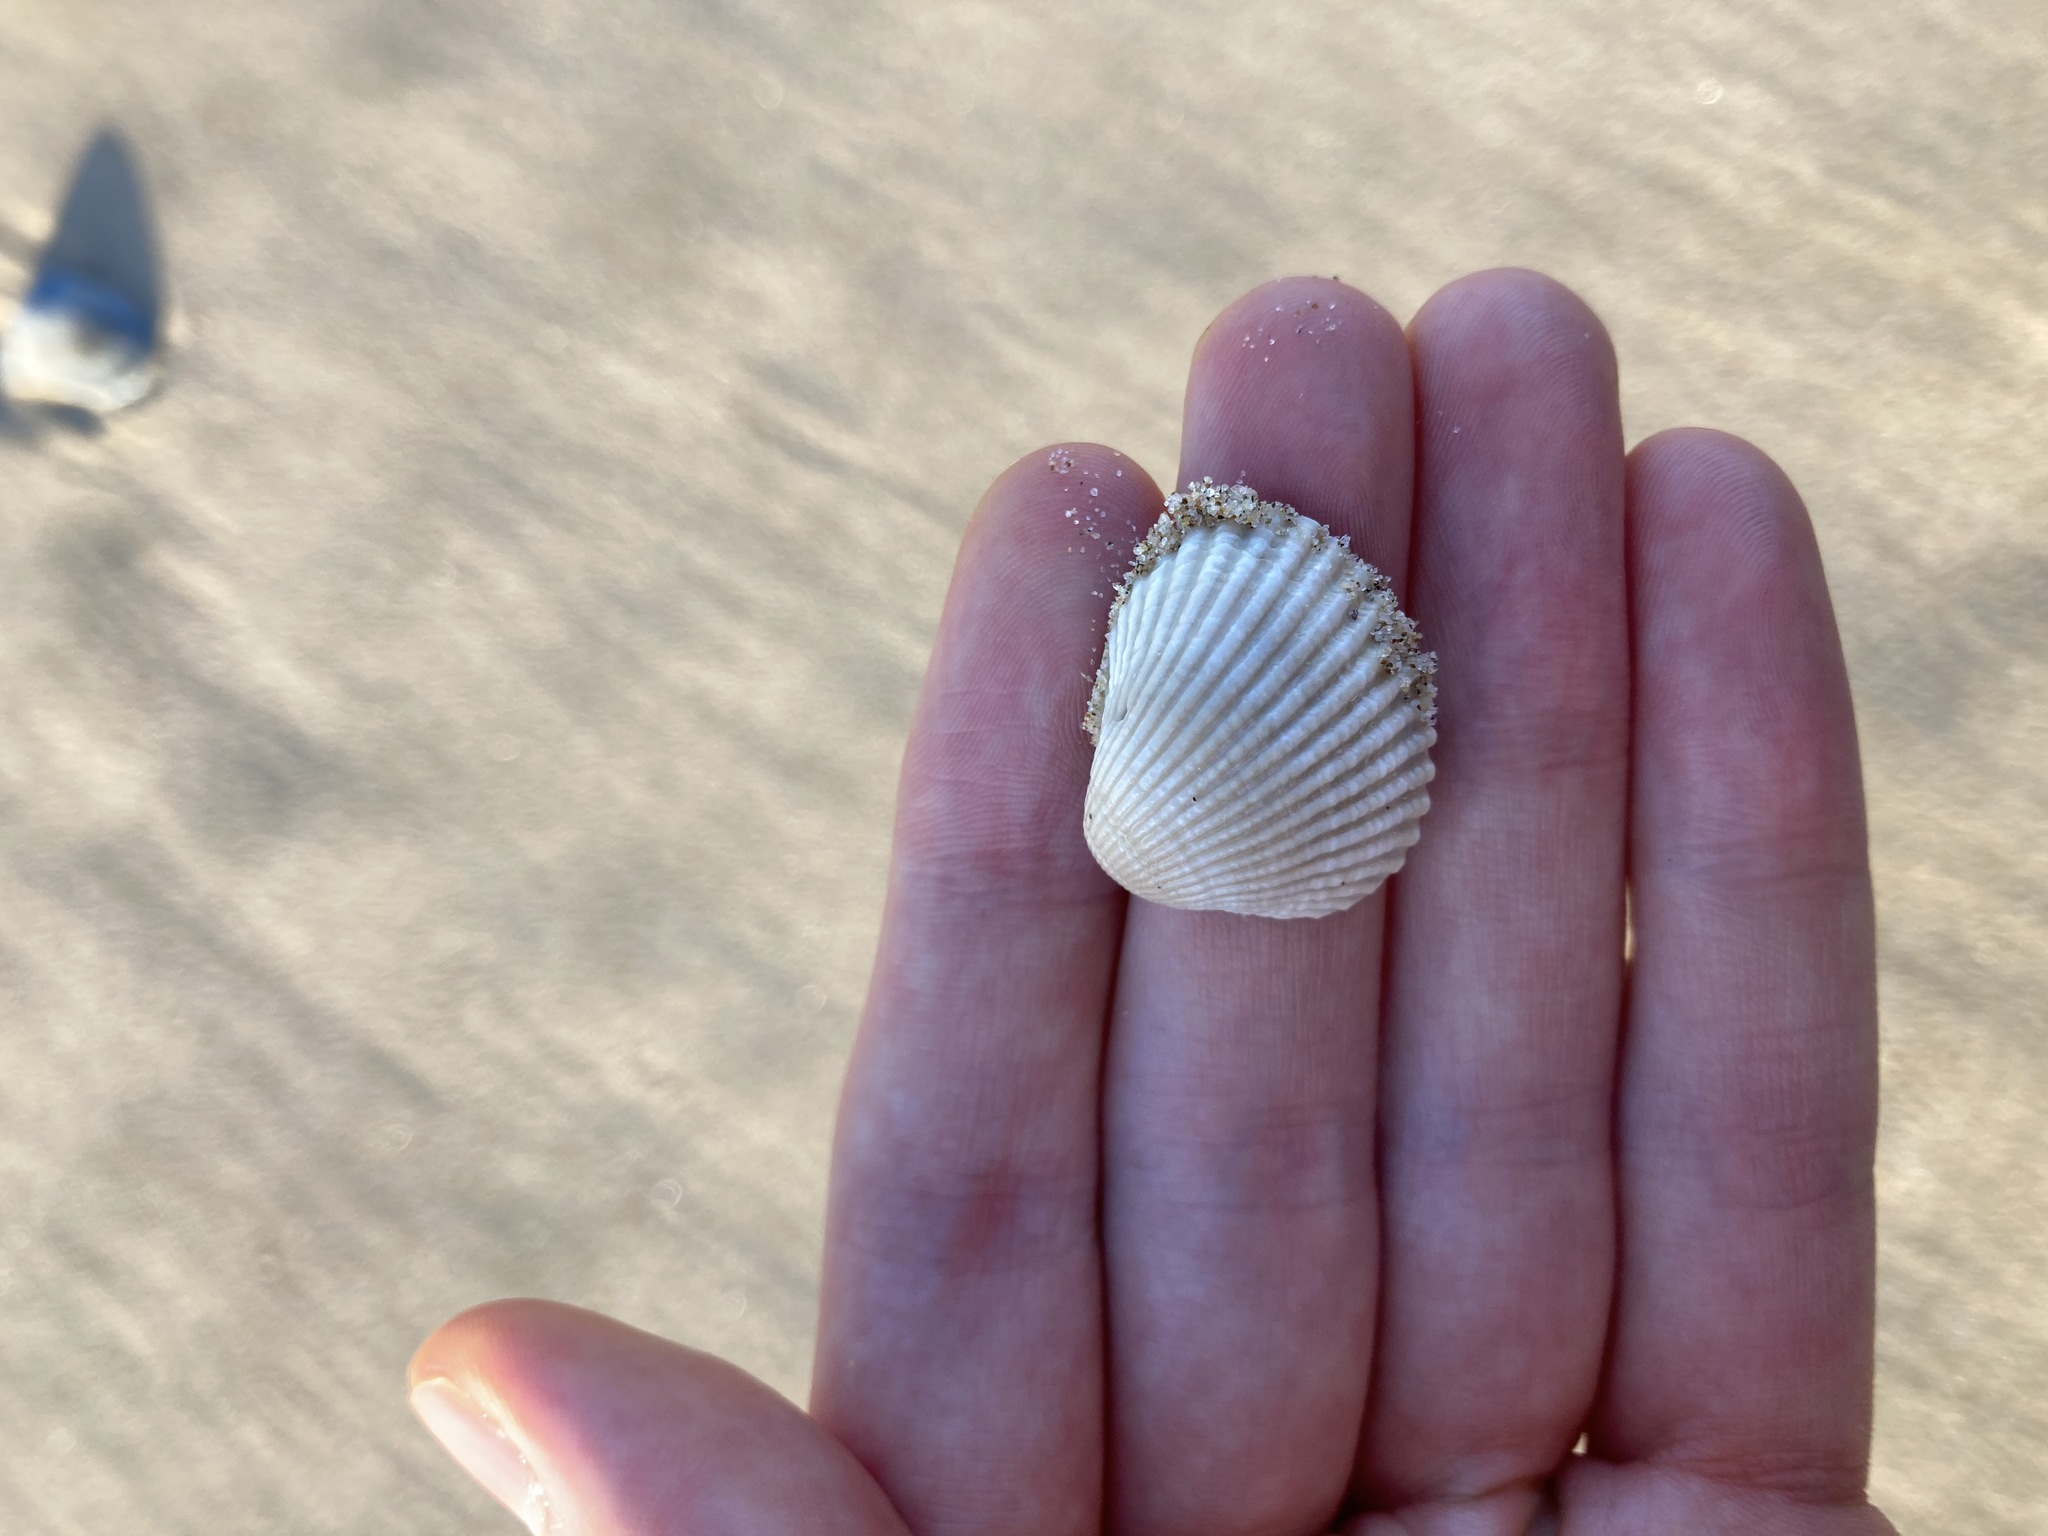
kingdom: Animalia
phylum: Mollusca
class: Bivalvia
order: Arcida
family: Arcidae
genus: Anadara
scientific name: Anadara trapezia
